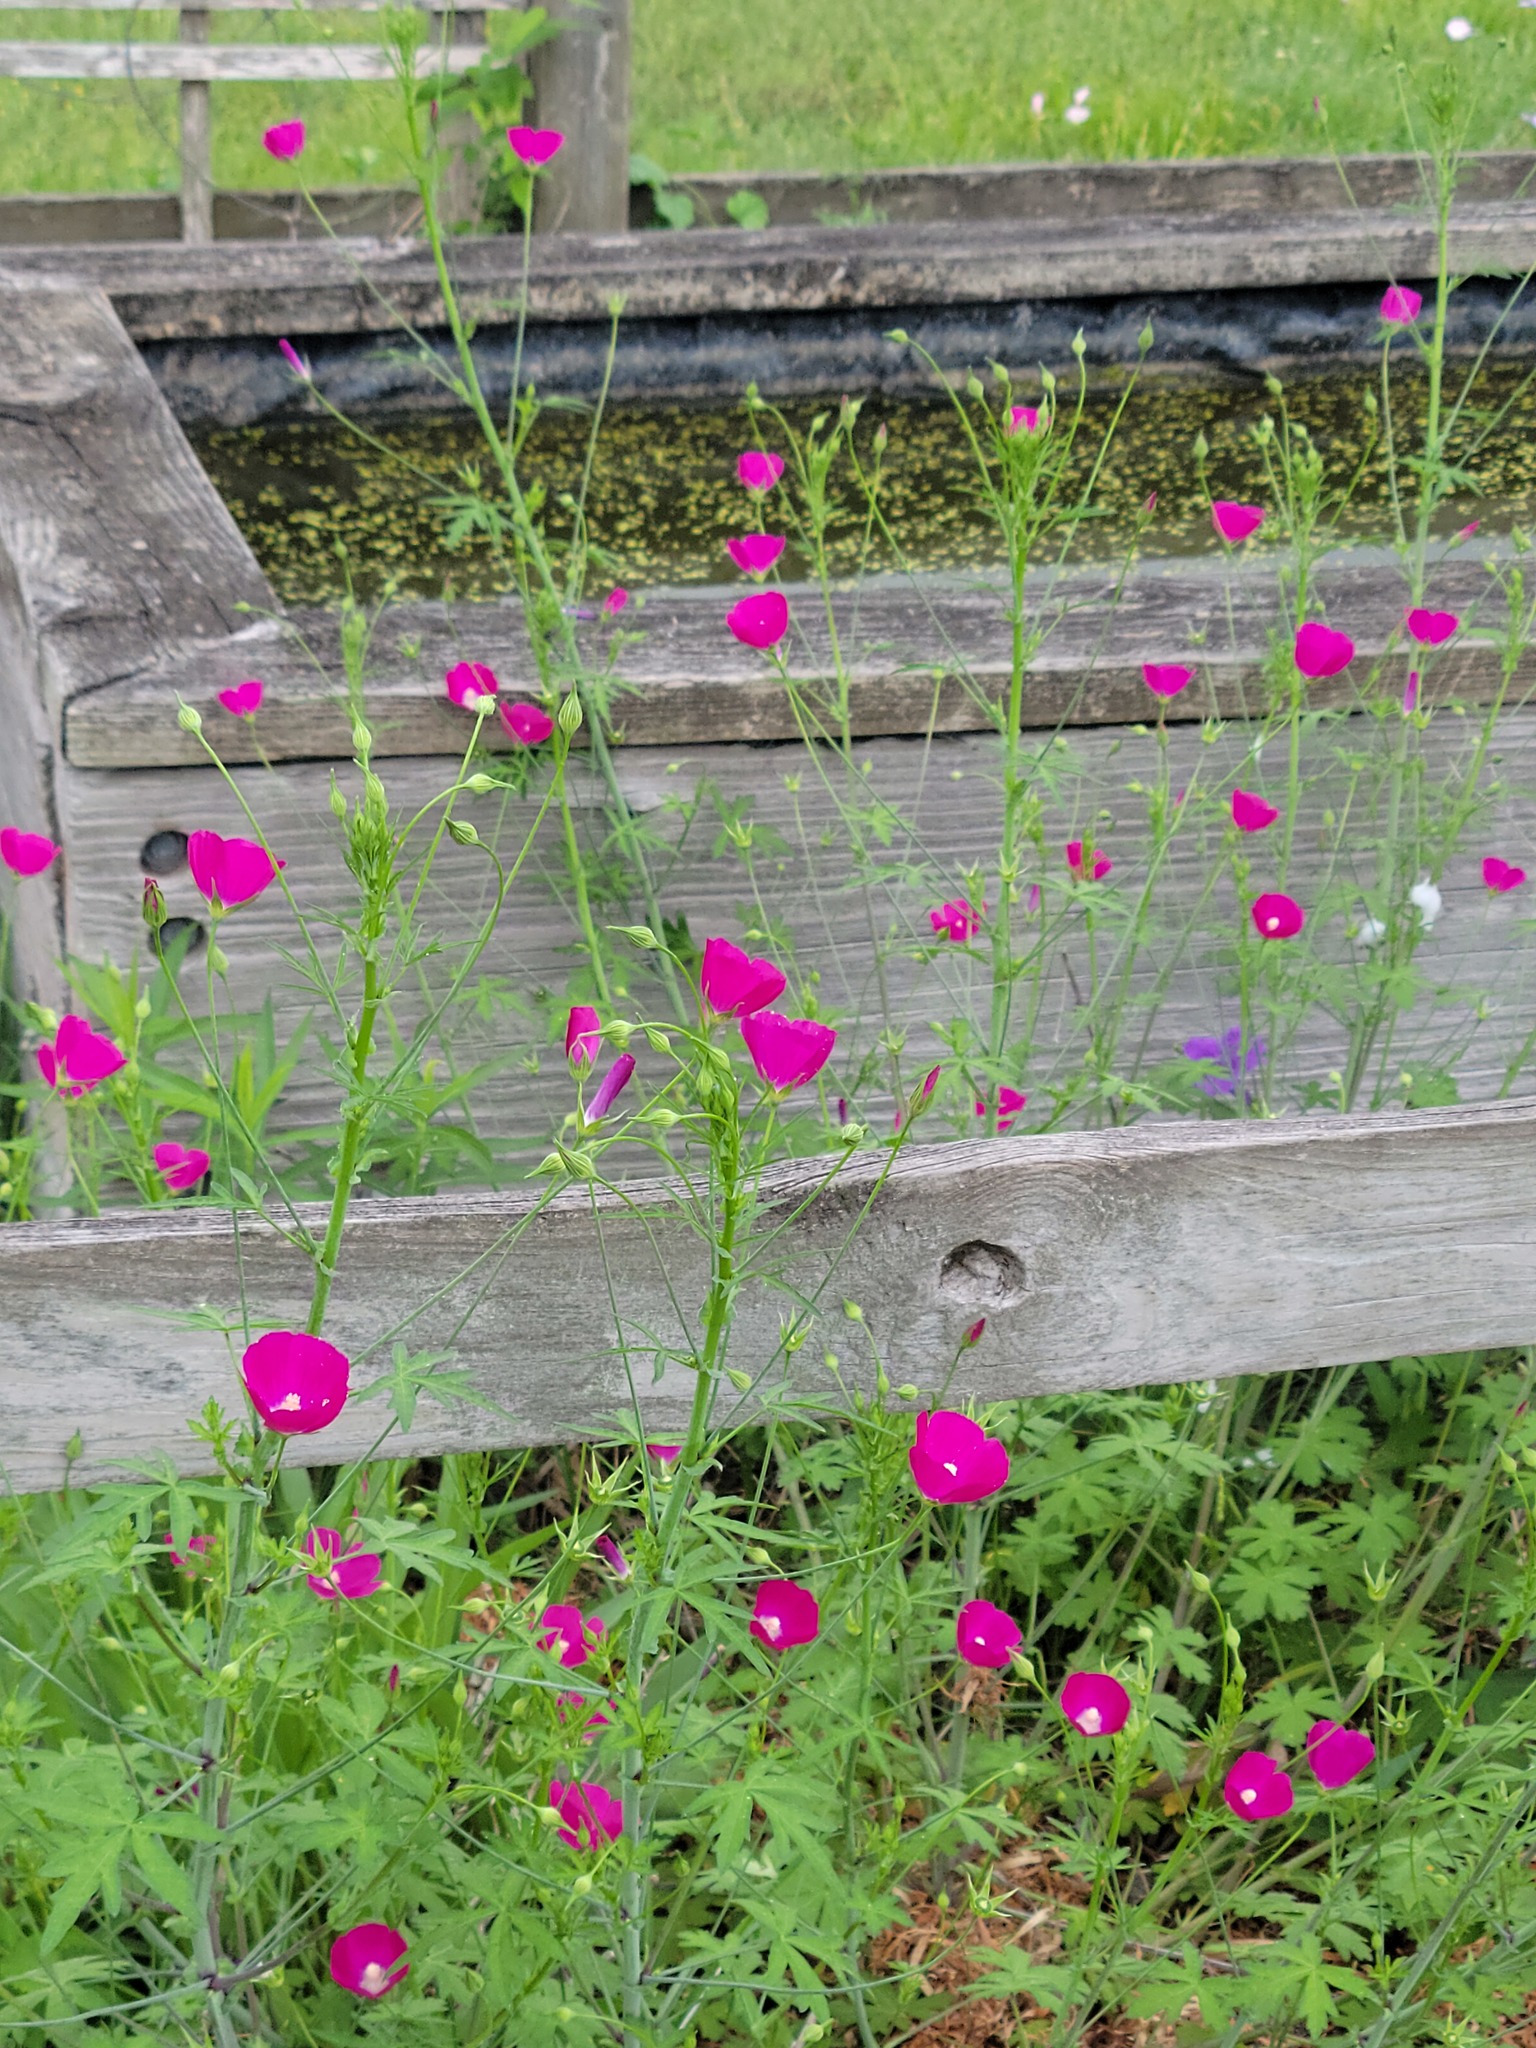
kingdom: Plantae
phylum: Tracheophyta
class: Magnoliopsida
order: Malvales
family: Malvaceae
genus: Callirhoe
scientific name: Callirhoe leiocarpa
